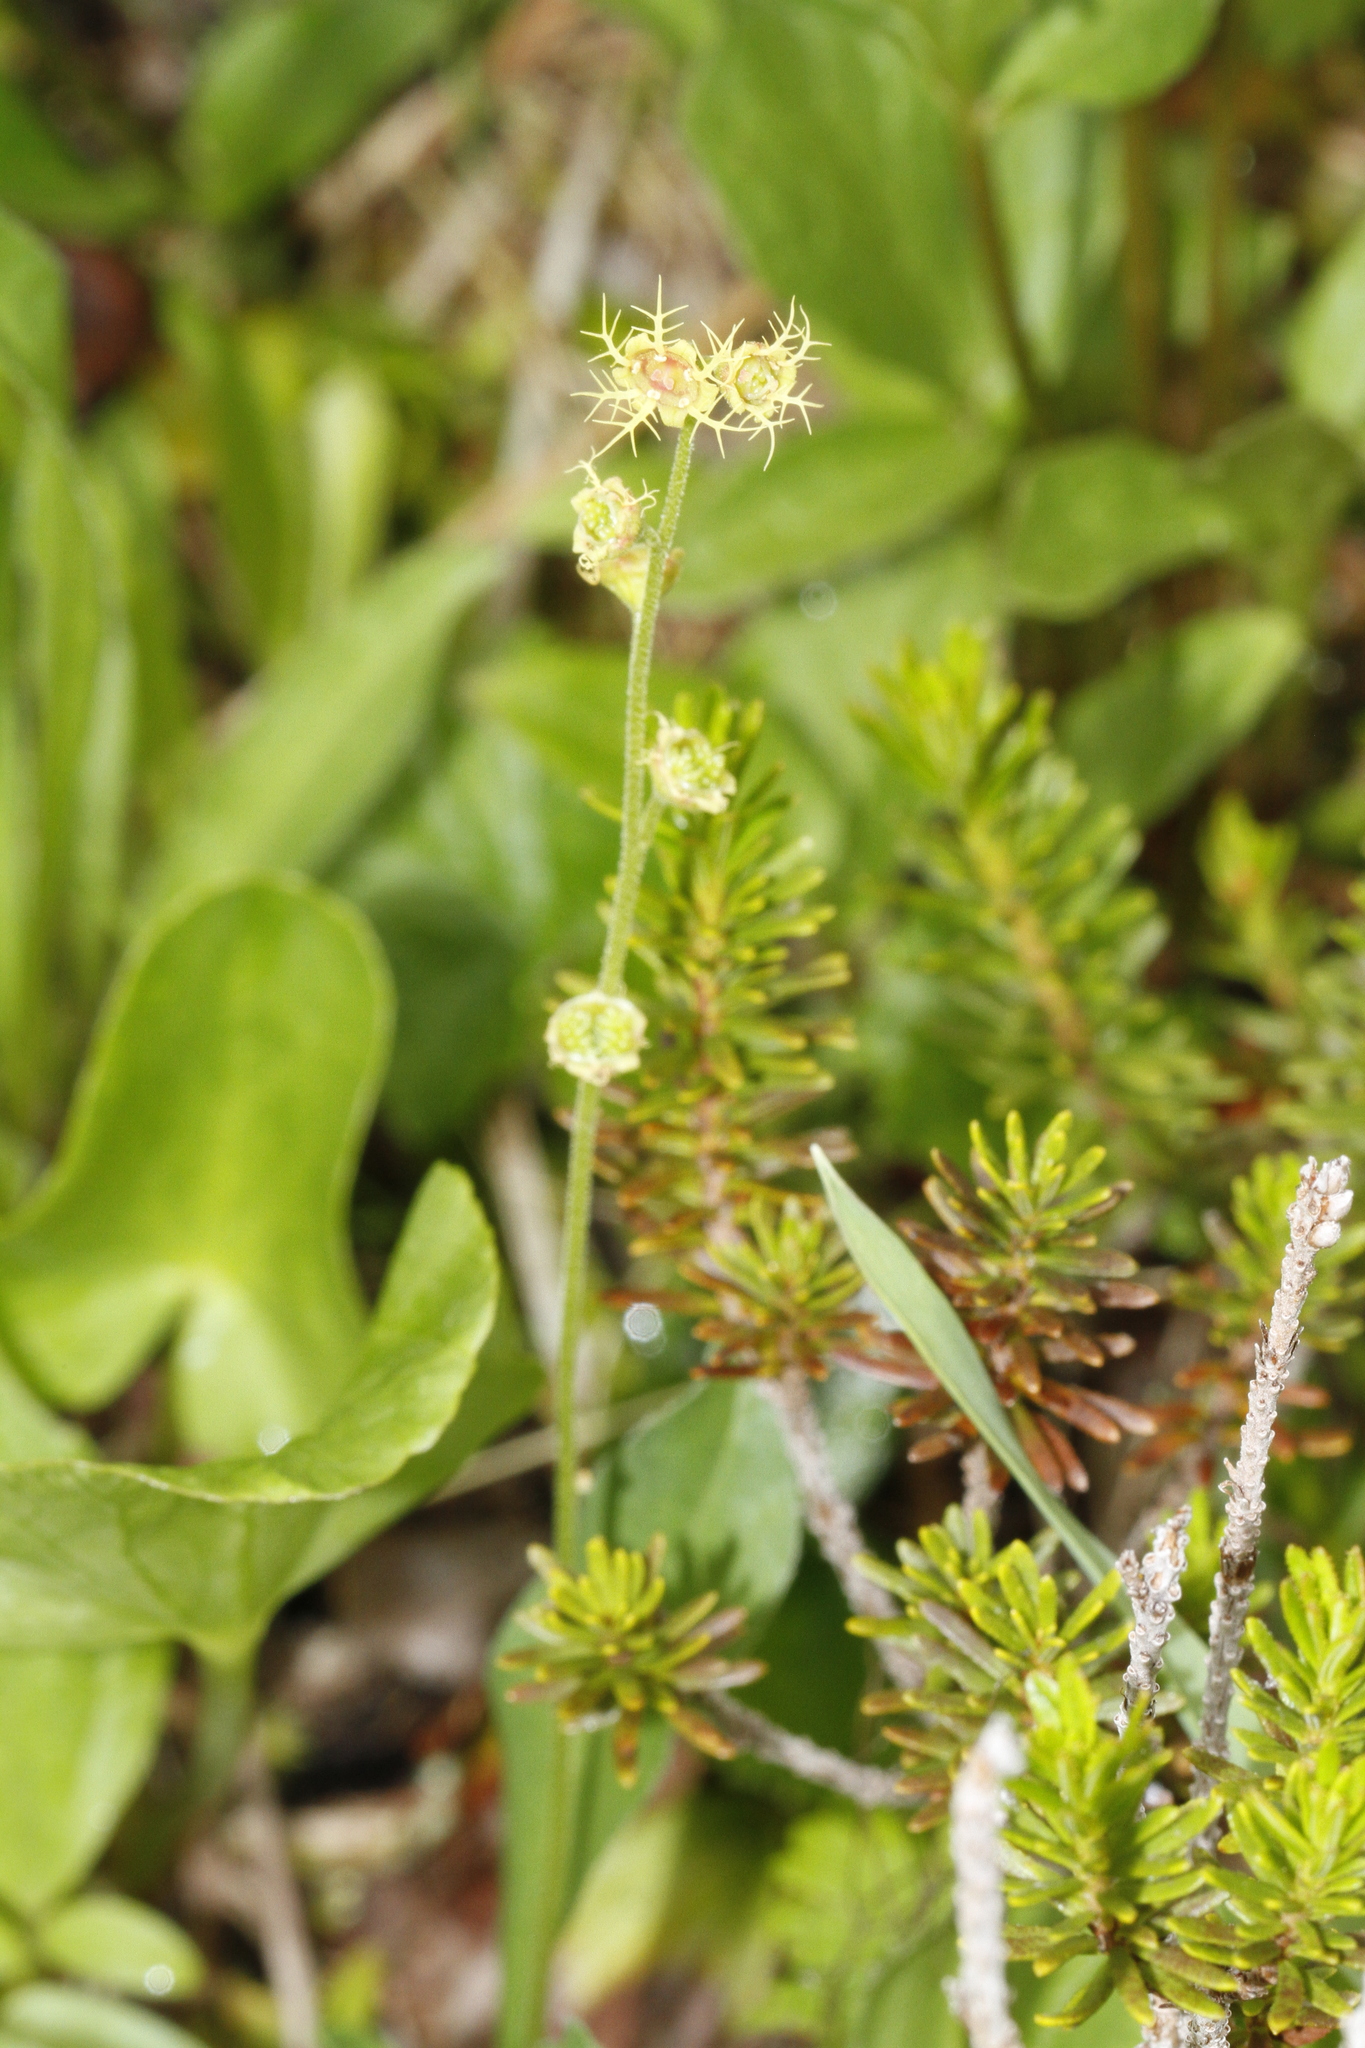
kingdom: Plantae
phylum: Tracheophyta
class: Magnoliopsida
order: Saxifragales
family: Saxifragaceae
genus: Pectiantia
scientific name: Pectiantia pentandra
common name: Alpine bishop's-cap
